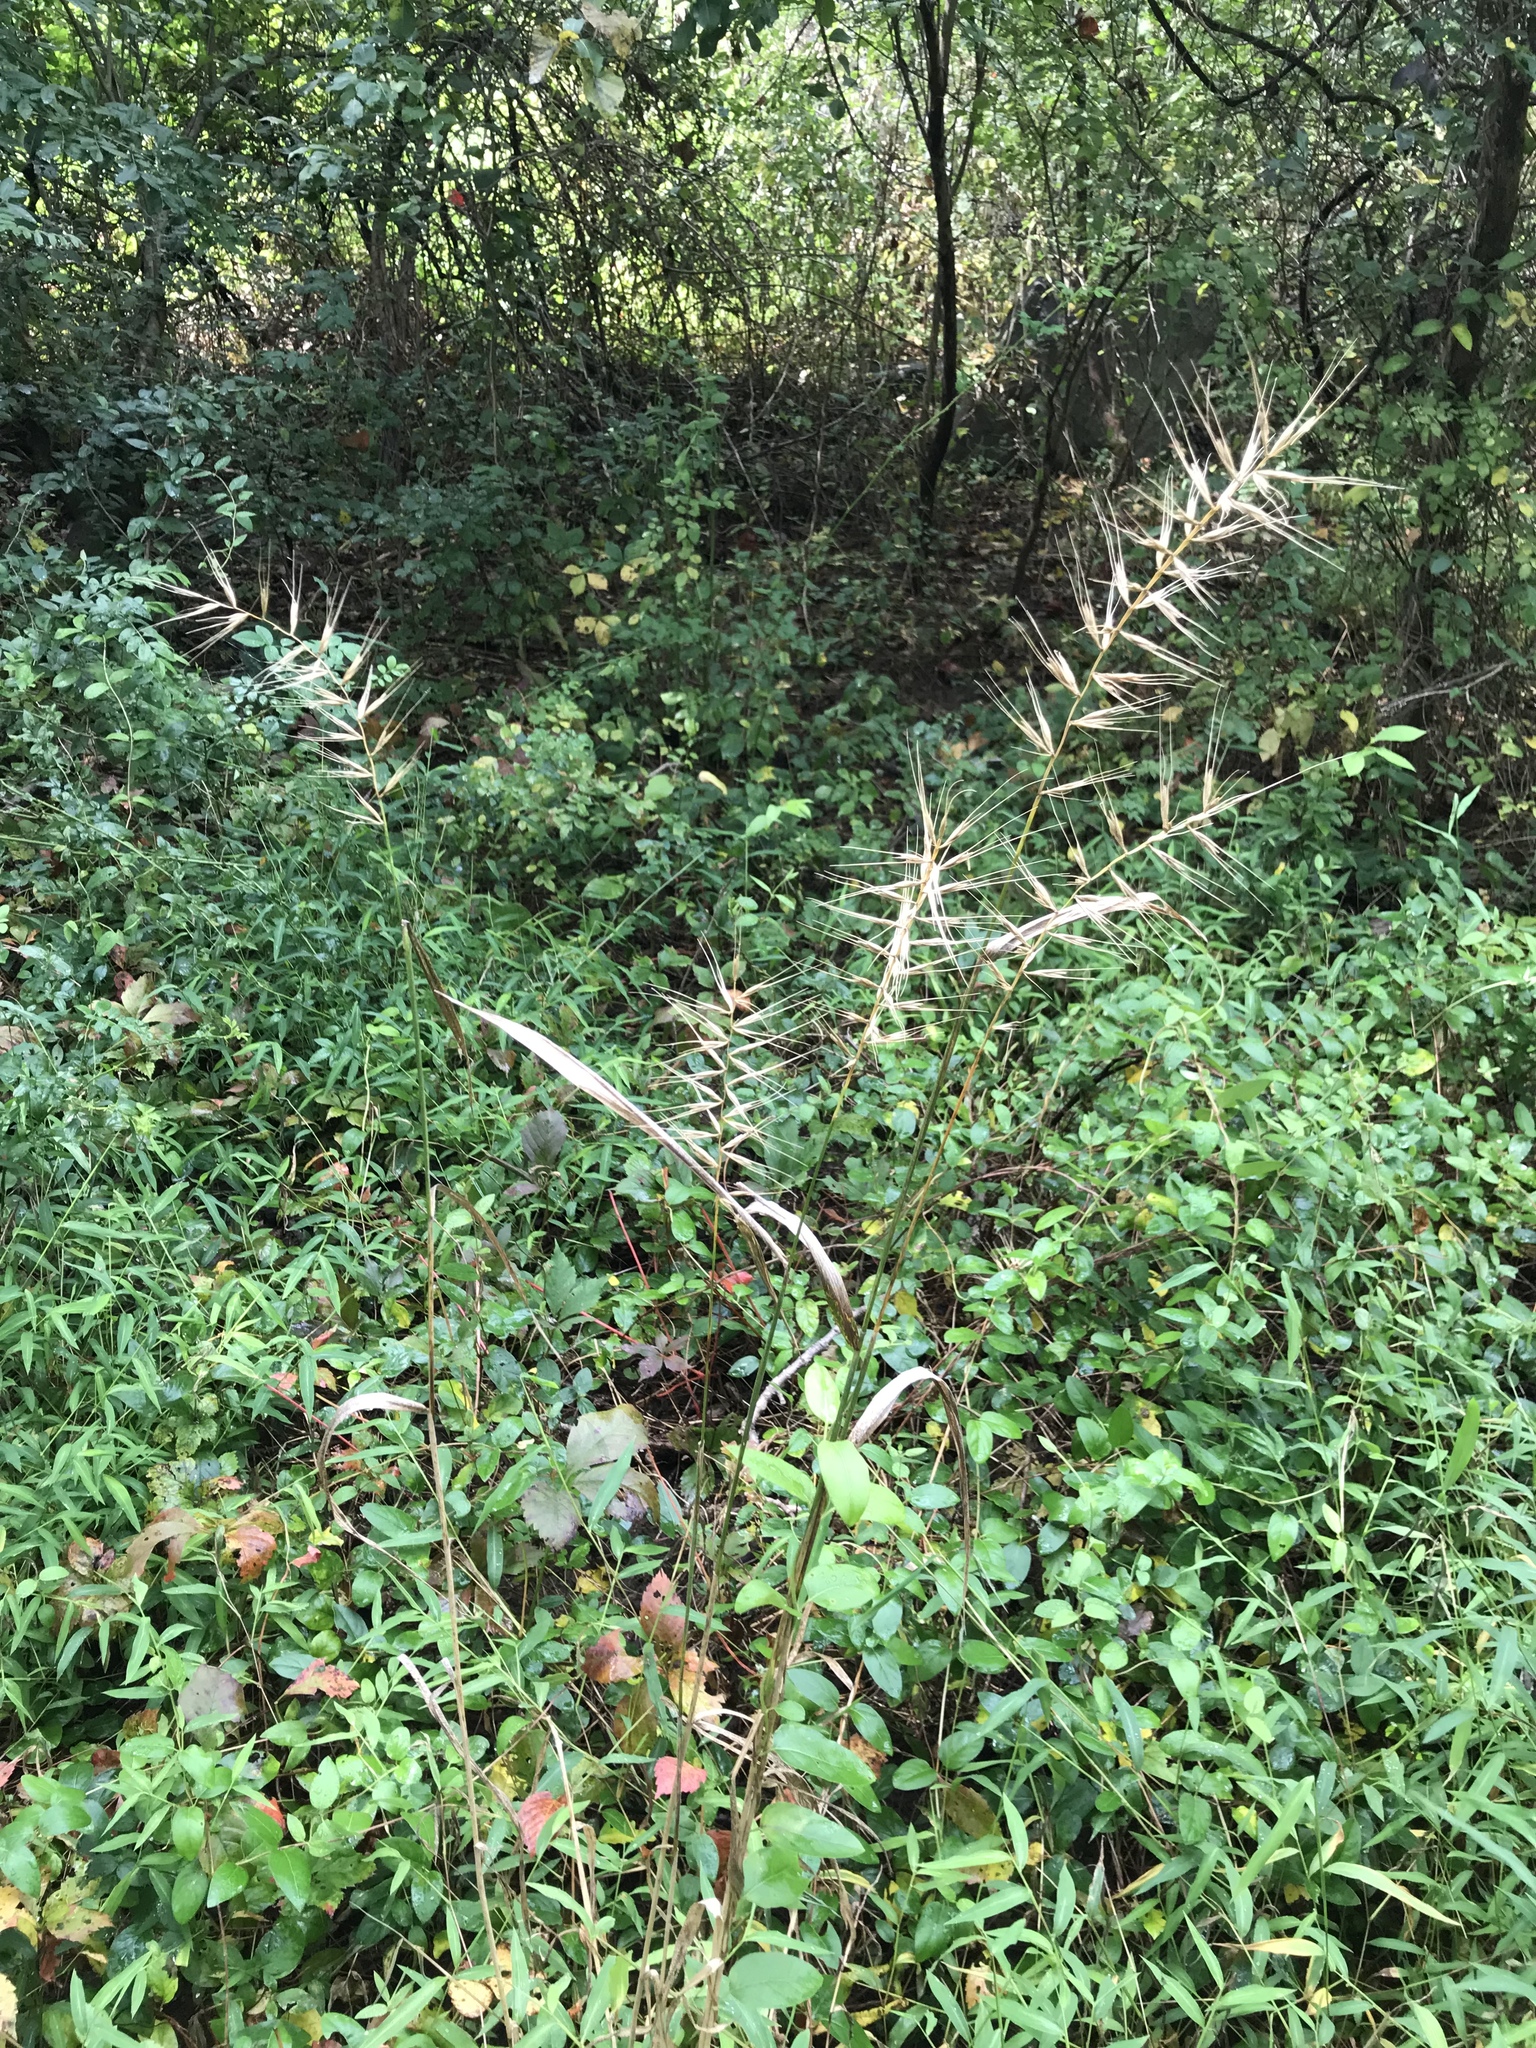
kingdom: Plantae
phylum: Tracheophyta
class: Liliopsida
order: Poales
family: Poaceae
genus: Elymus
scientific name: Elymus hystrix
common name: Bottlebrush grass
